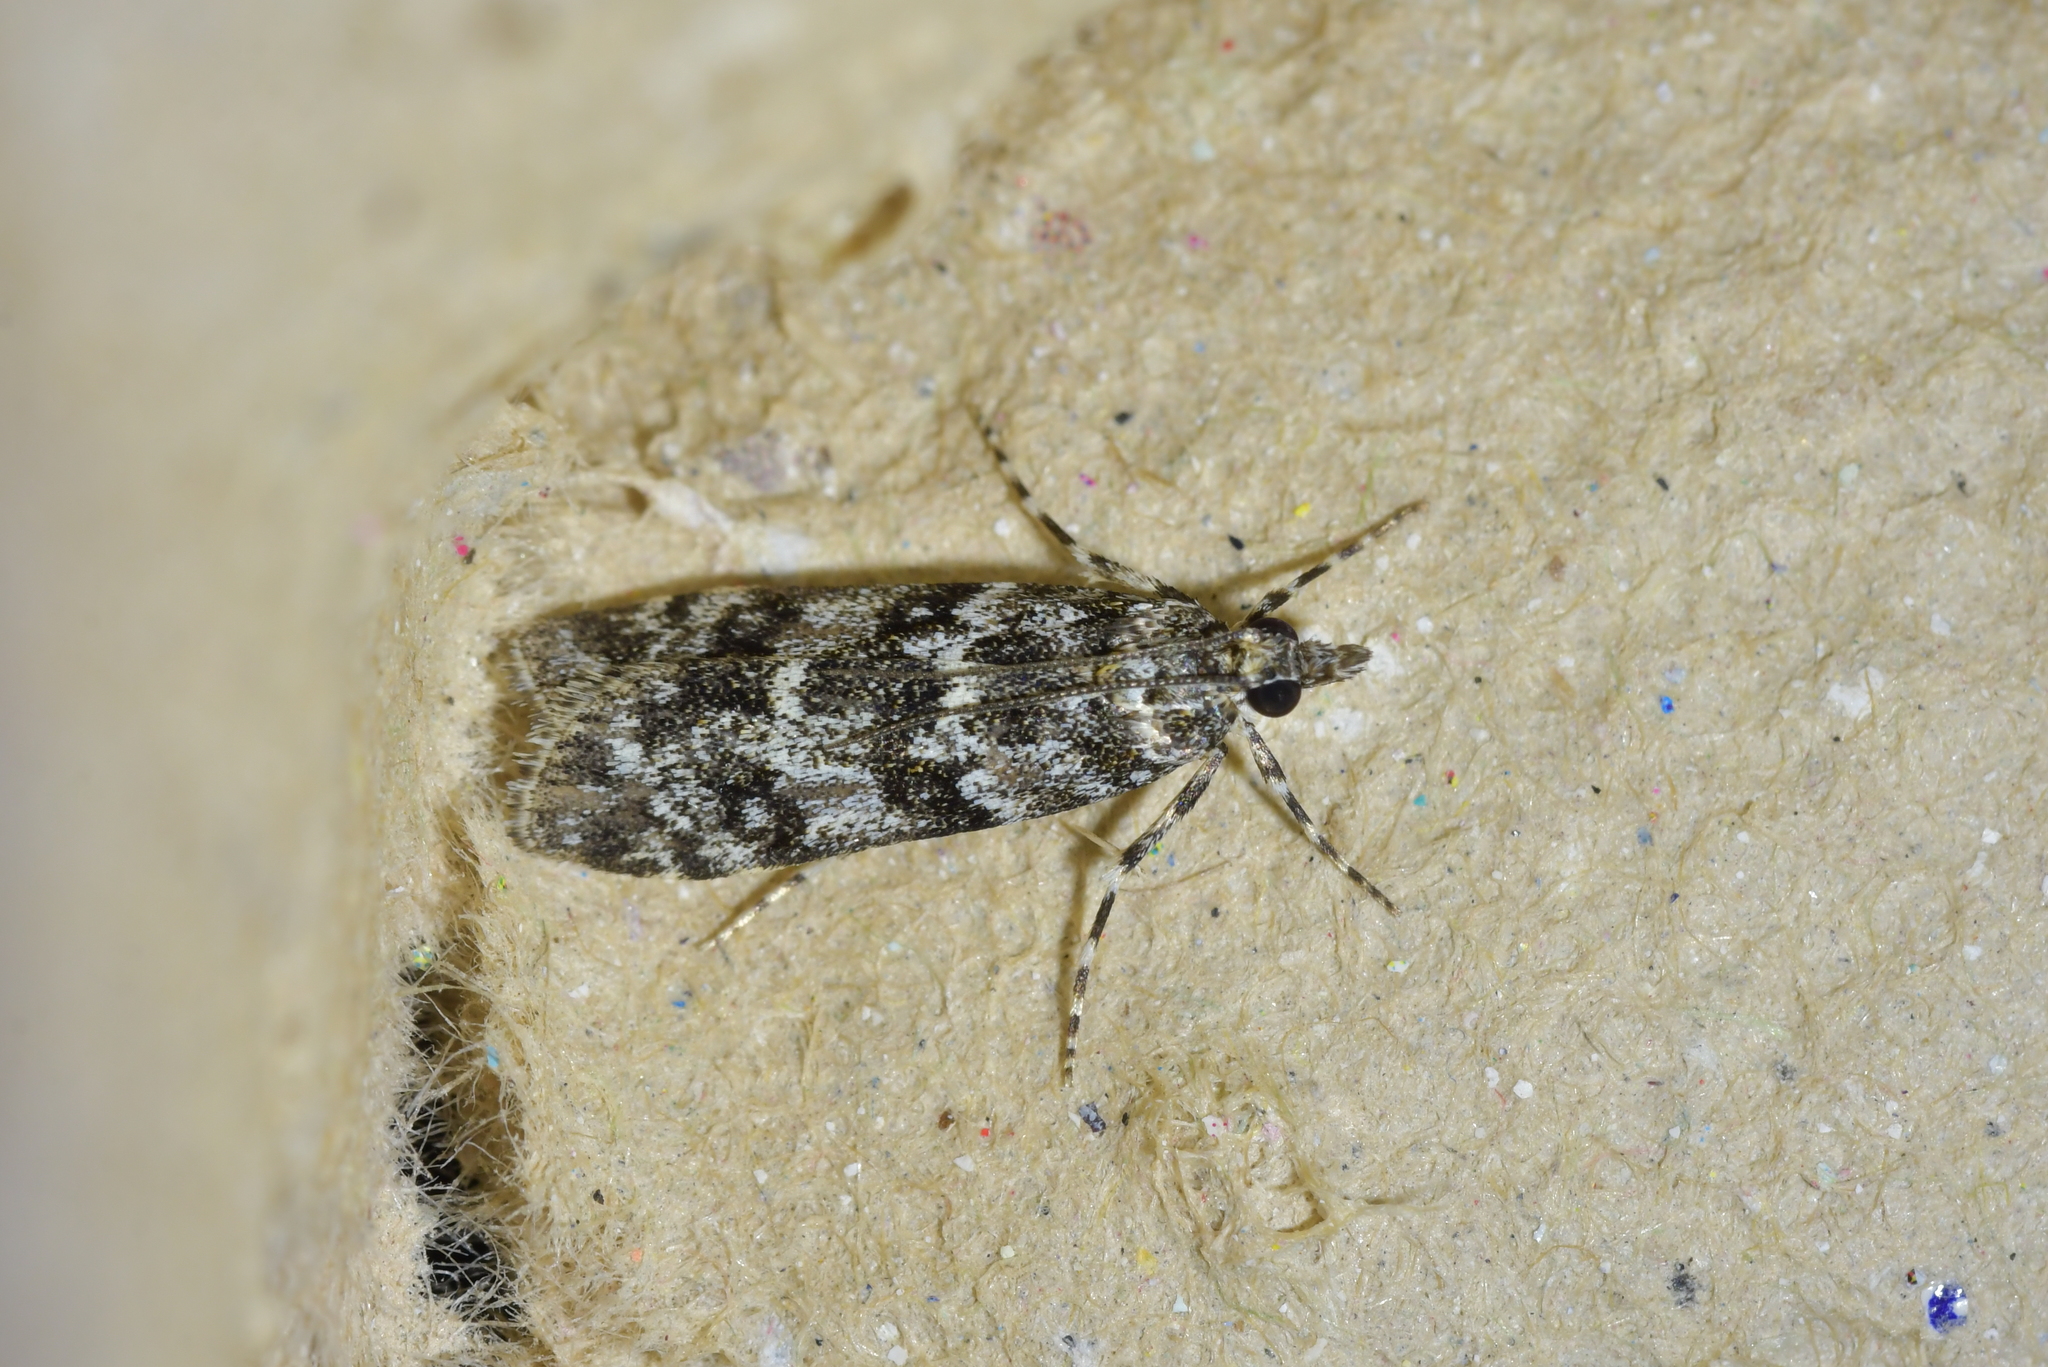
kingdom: Animalia
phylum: Arthropoda
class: Insecta
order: Lepidoptera
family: Crambidae
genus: Eudonia
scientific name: Eudonia philerga
